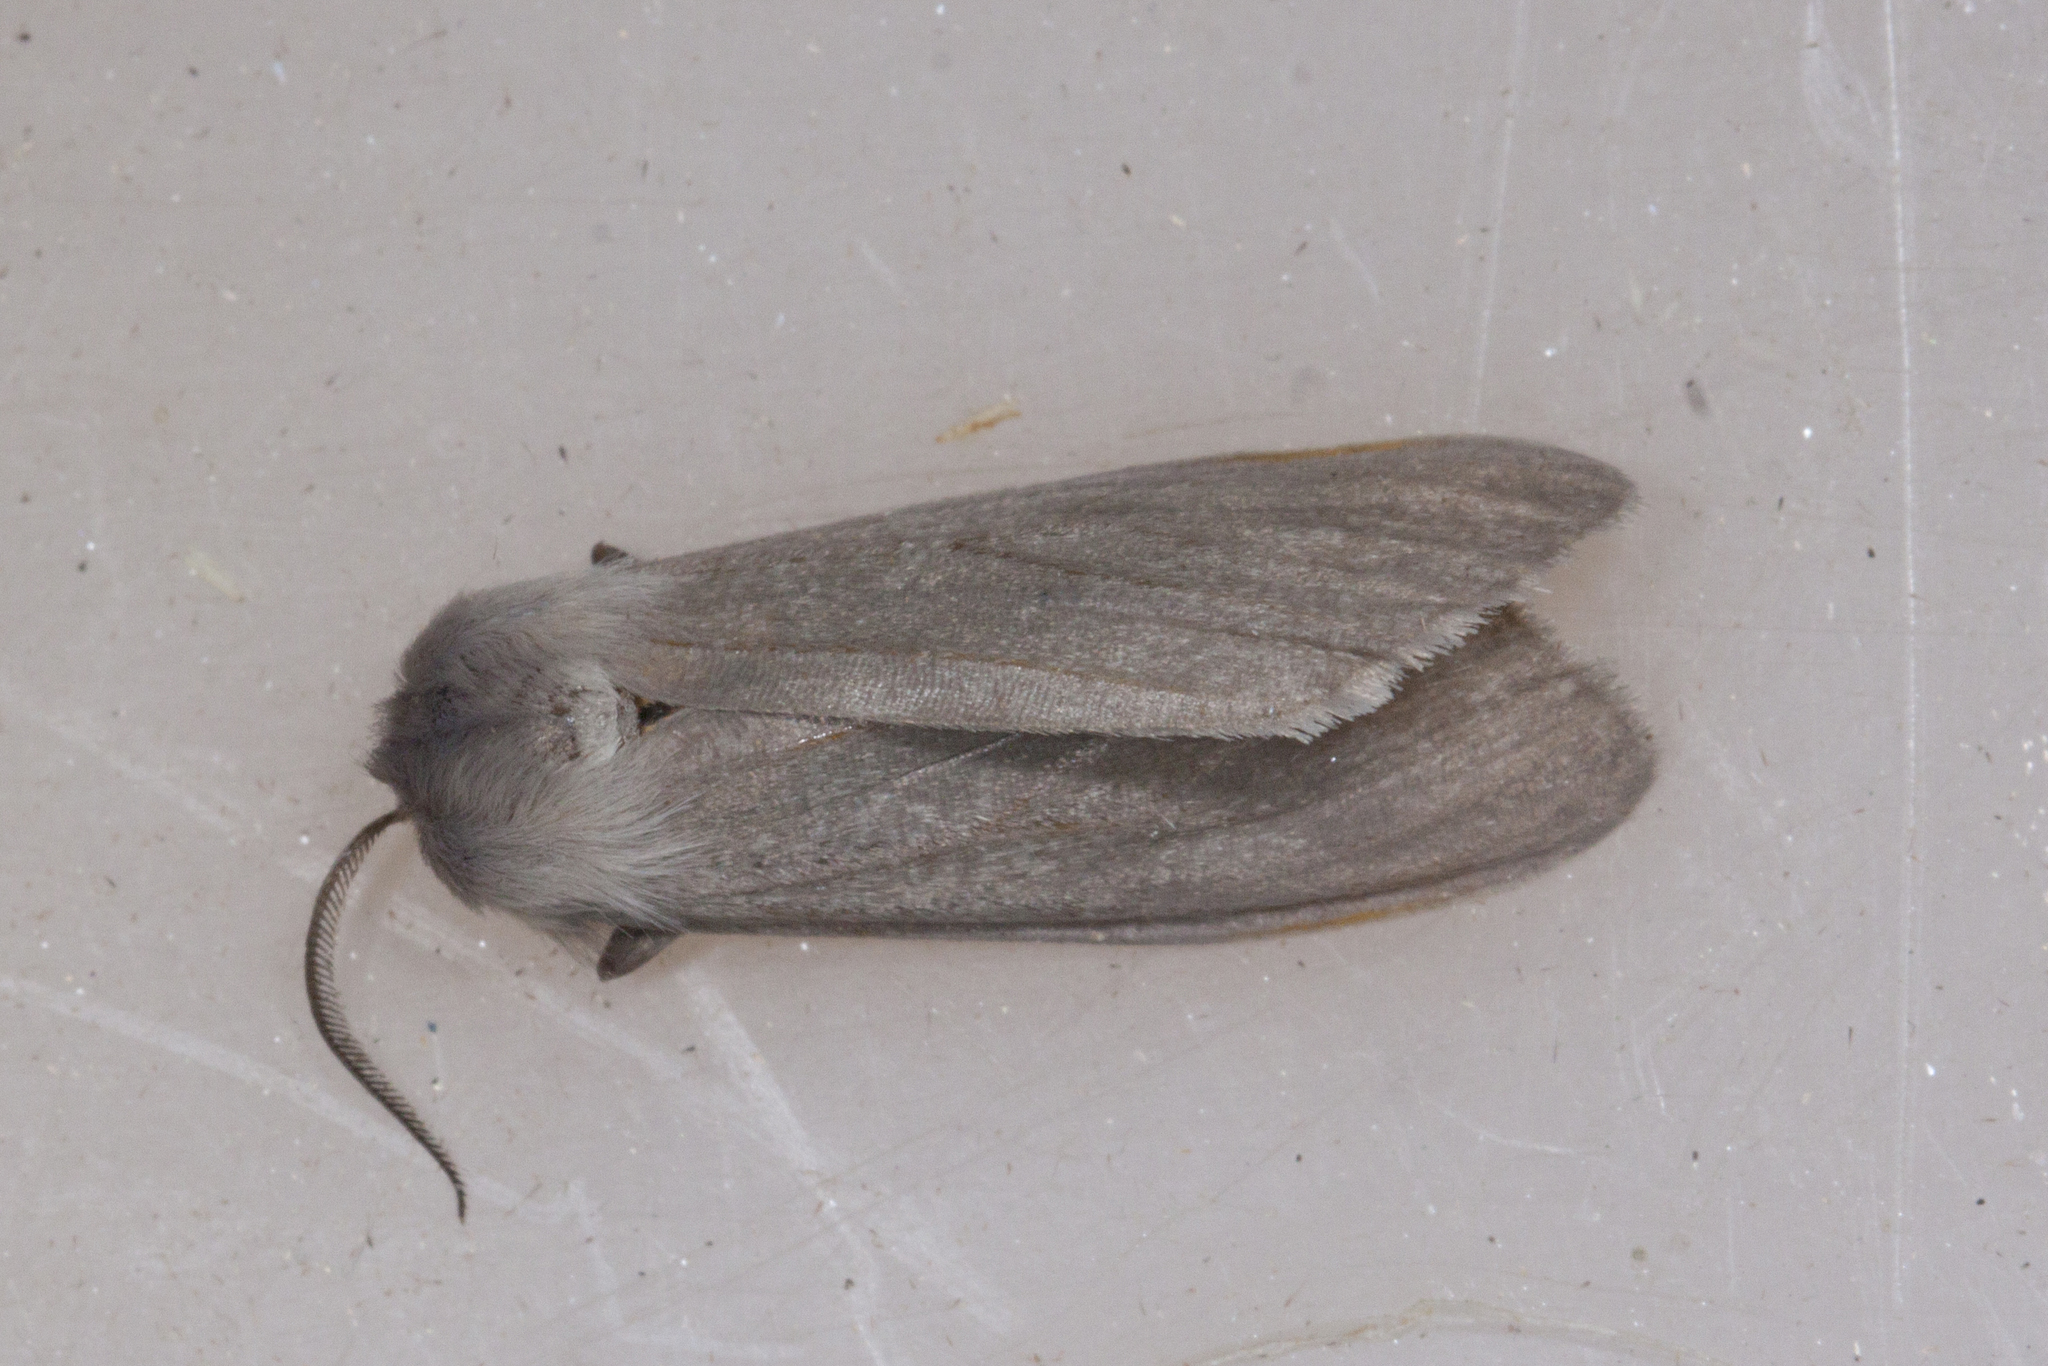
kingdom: Animalia
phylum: Arthropoda
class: Insecta
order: Lepidoptera
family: Erebidae
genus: Euchaetes
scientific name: Euchaetes egle
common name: Milkweed tussock moth
